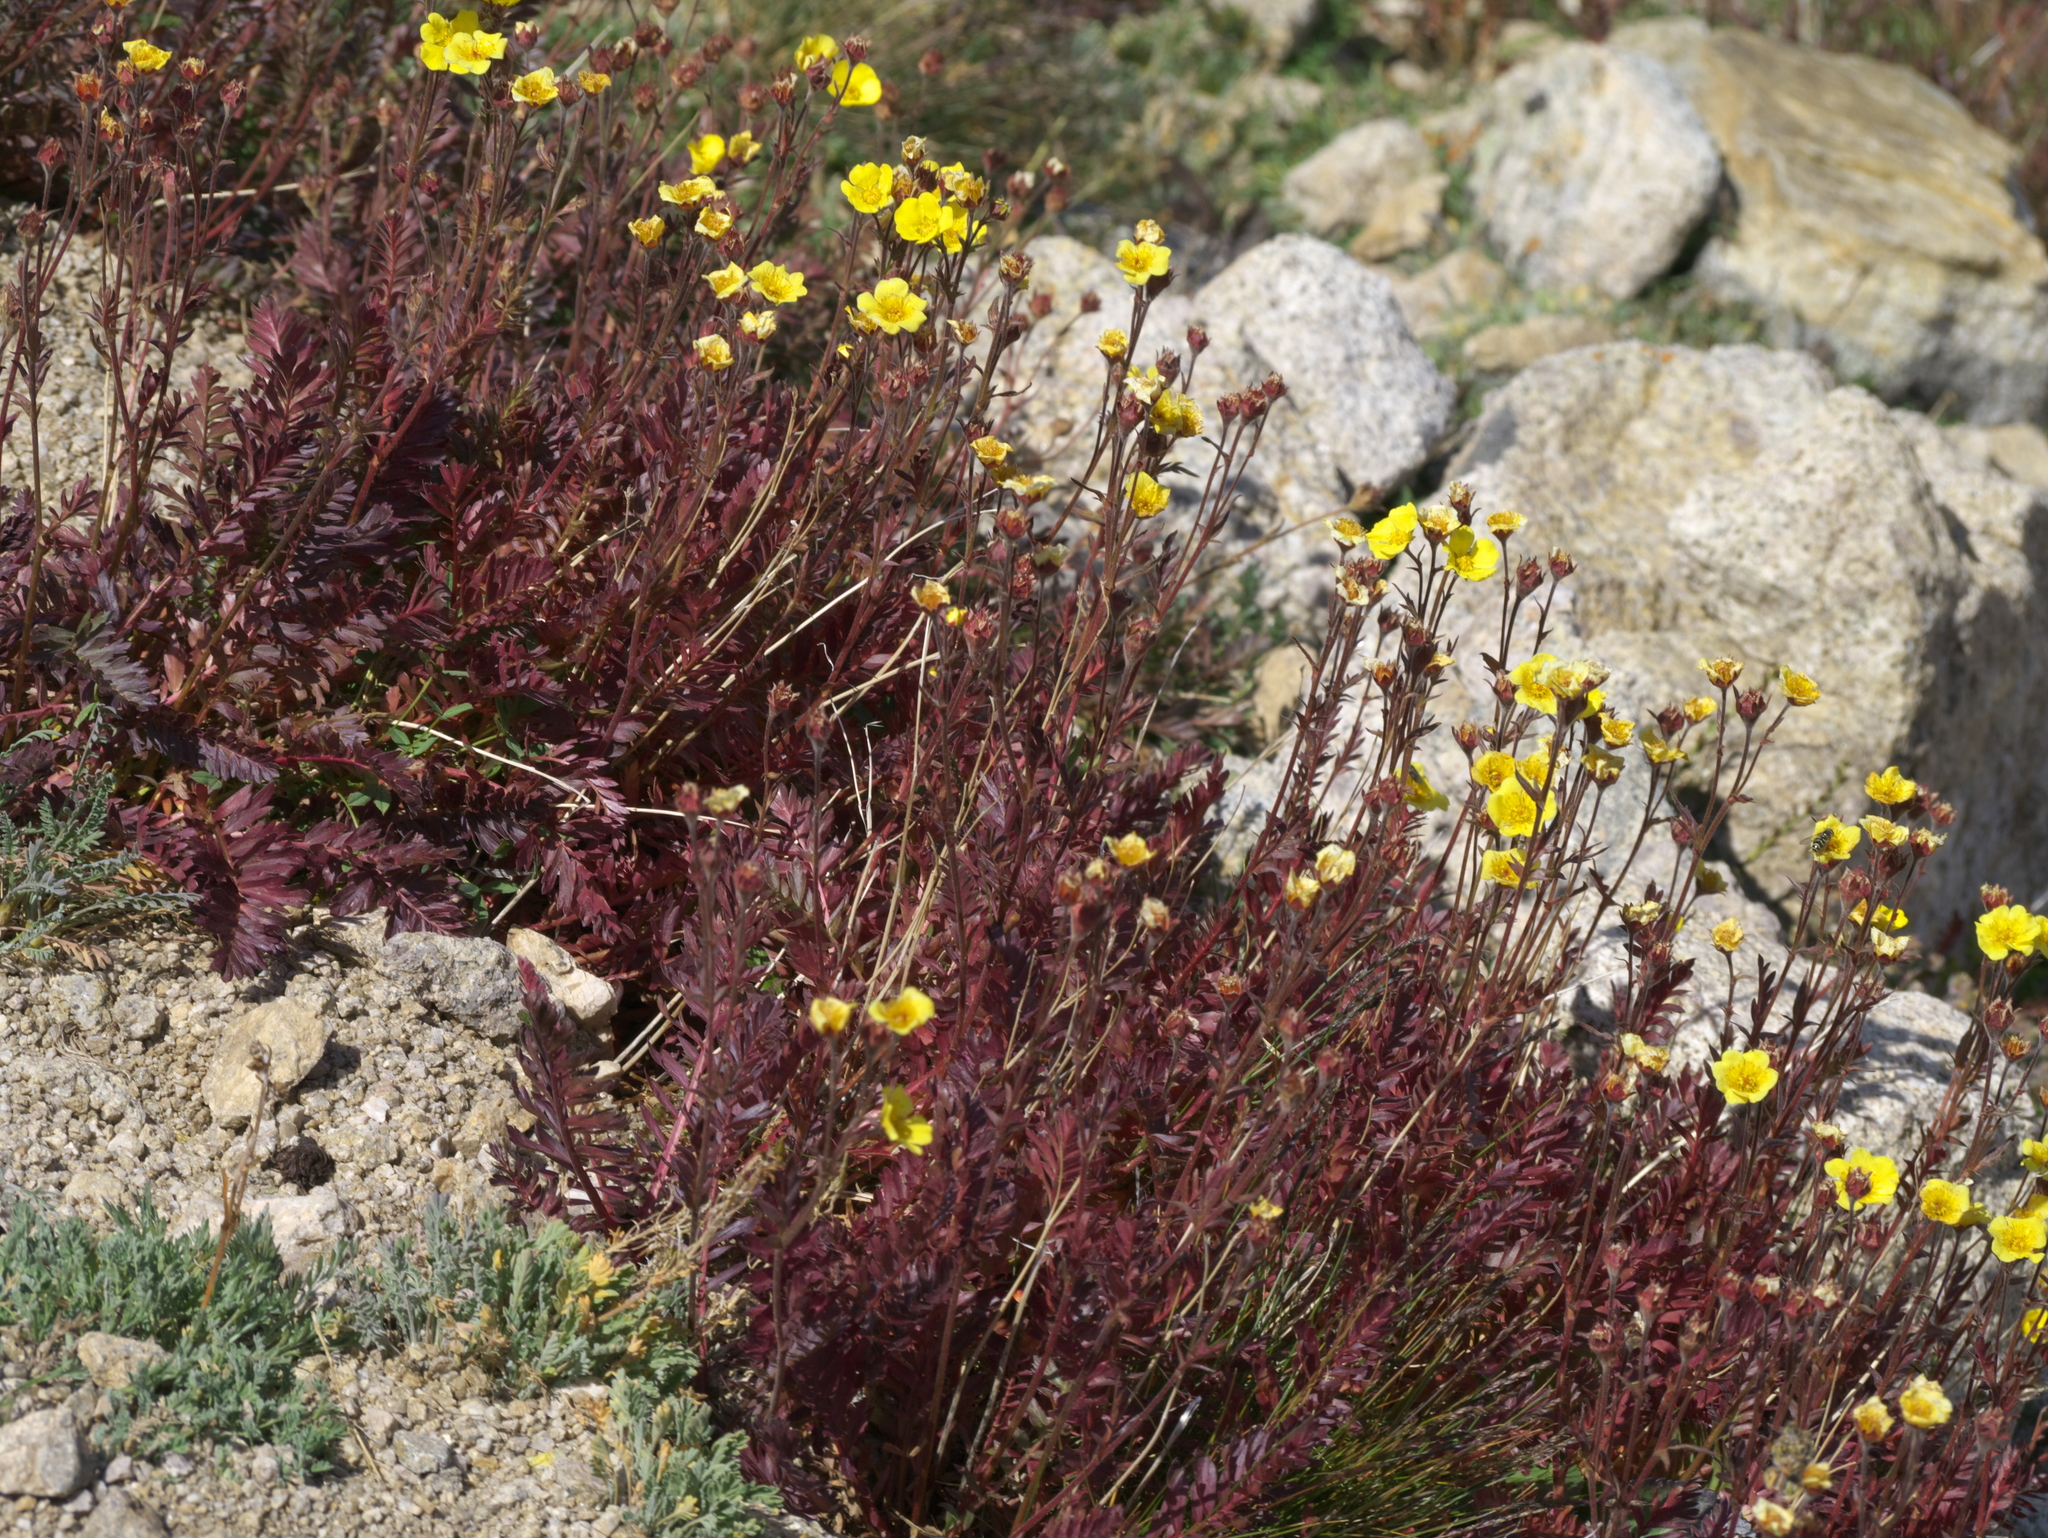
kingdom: Plantae
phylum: Tracheophyta
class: Magnoliopsida
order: Rosales
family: Rosaceae
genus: Geum
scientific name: Geum rossii
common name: Alpine avens
